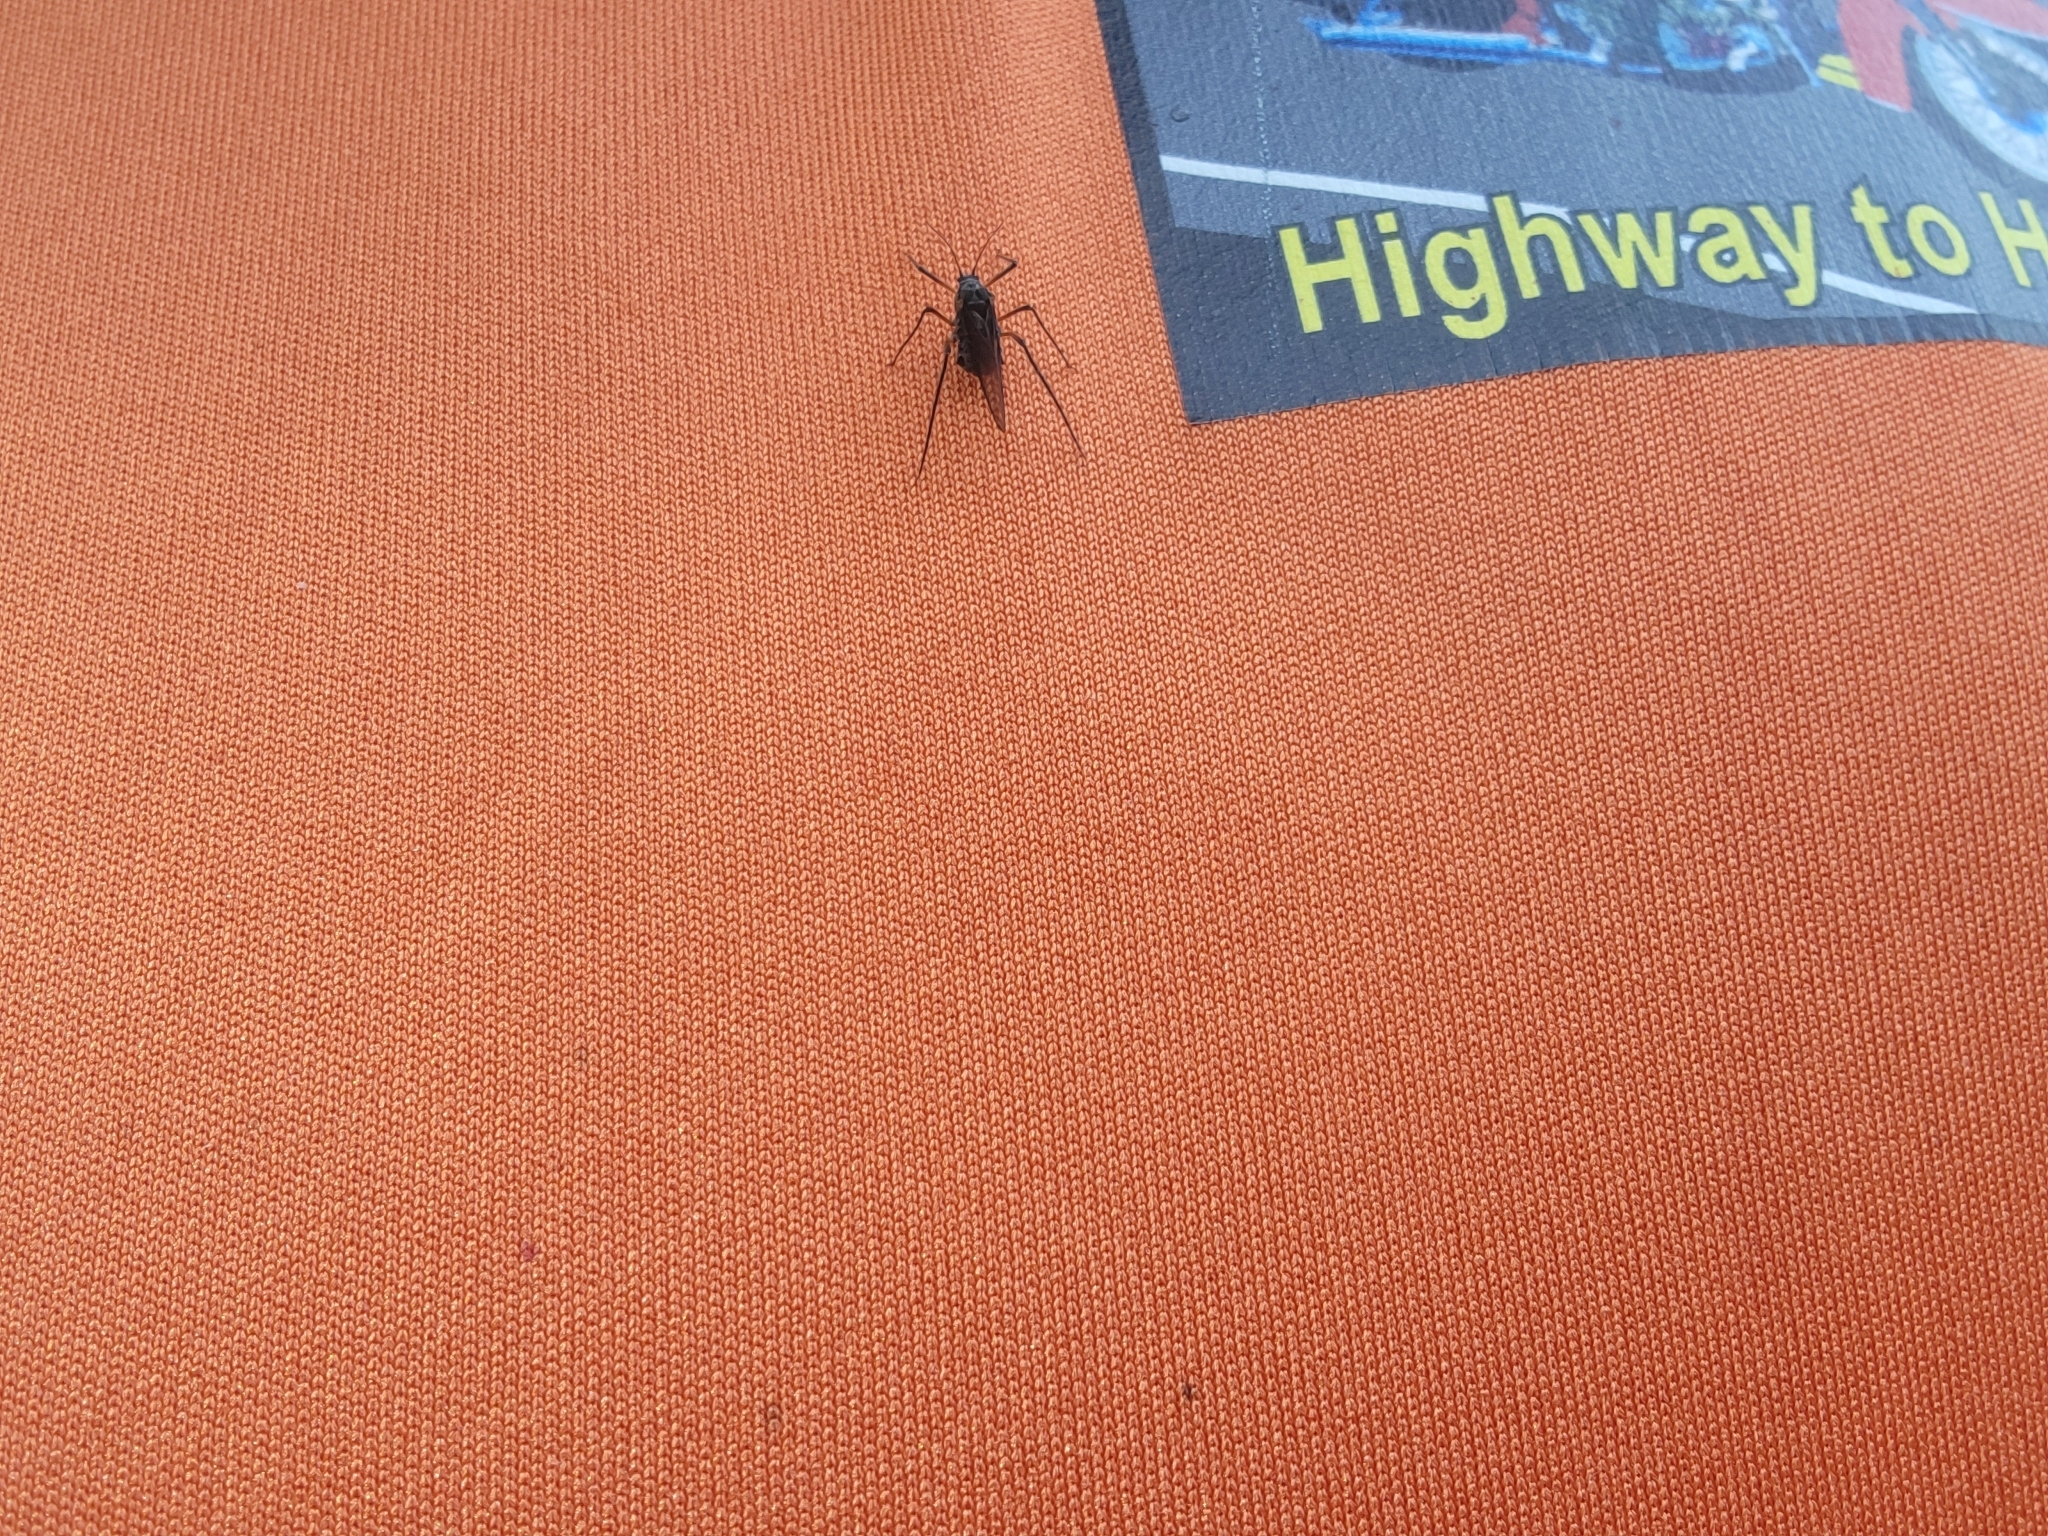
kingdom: Animalia
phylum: Arthropoda
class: Insecta
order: Hemiptera
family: Aphididae
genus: Longistigma
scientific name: Longistigma caryae
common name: Giant bark aphid
